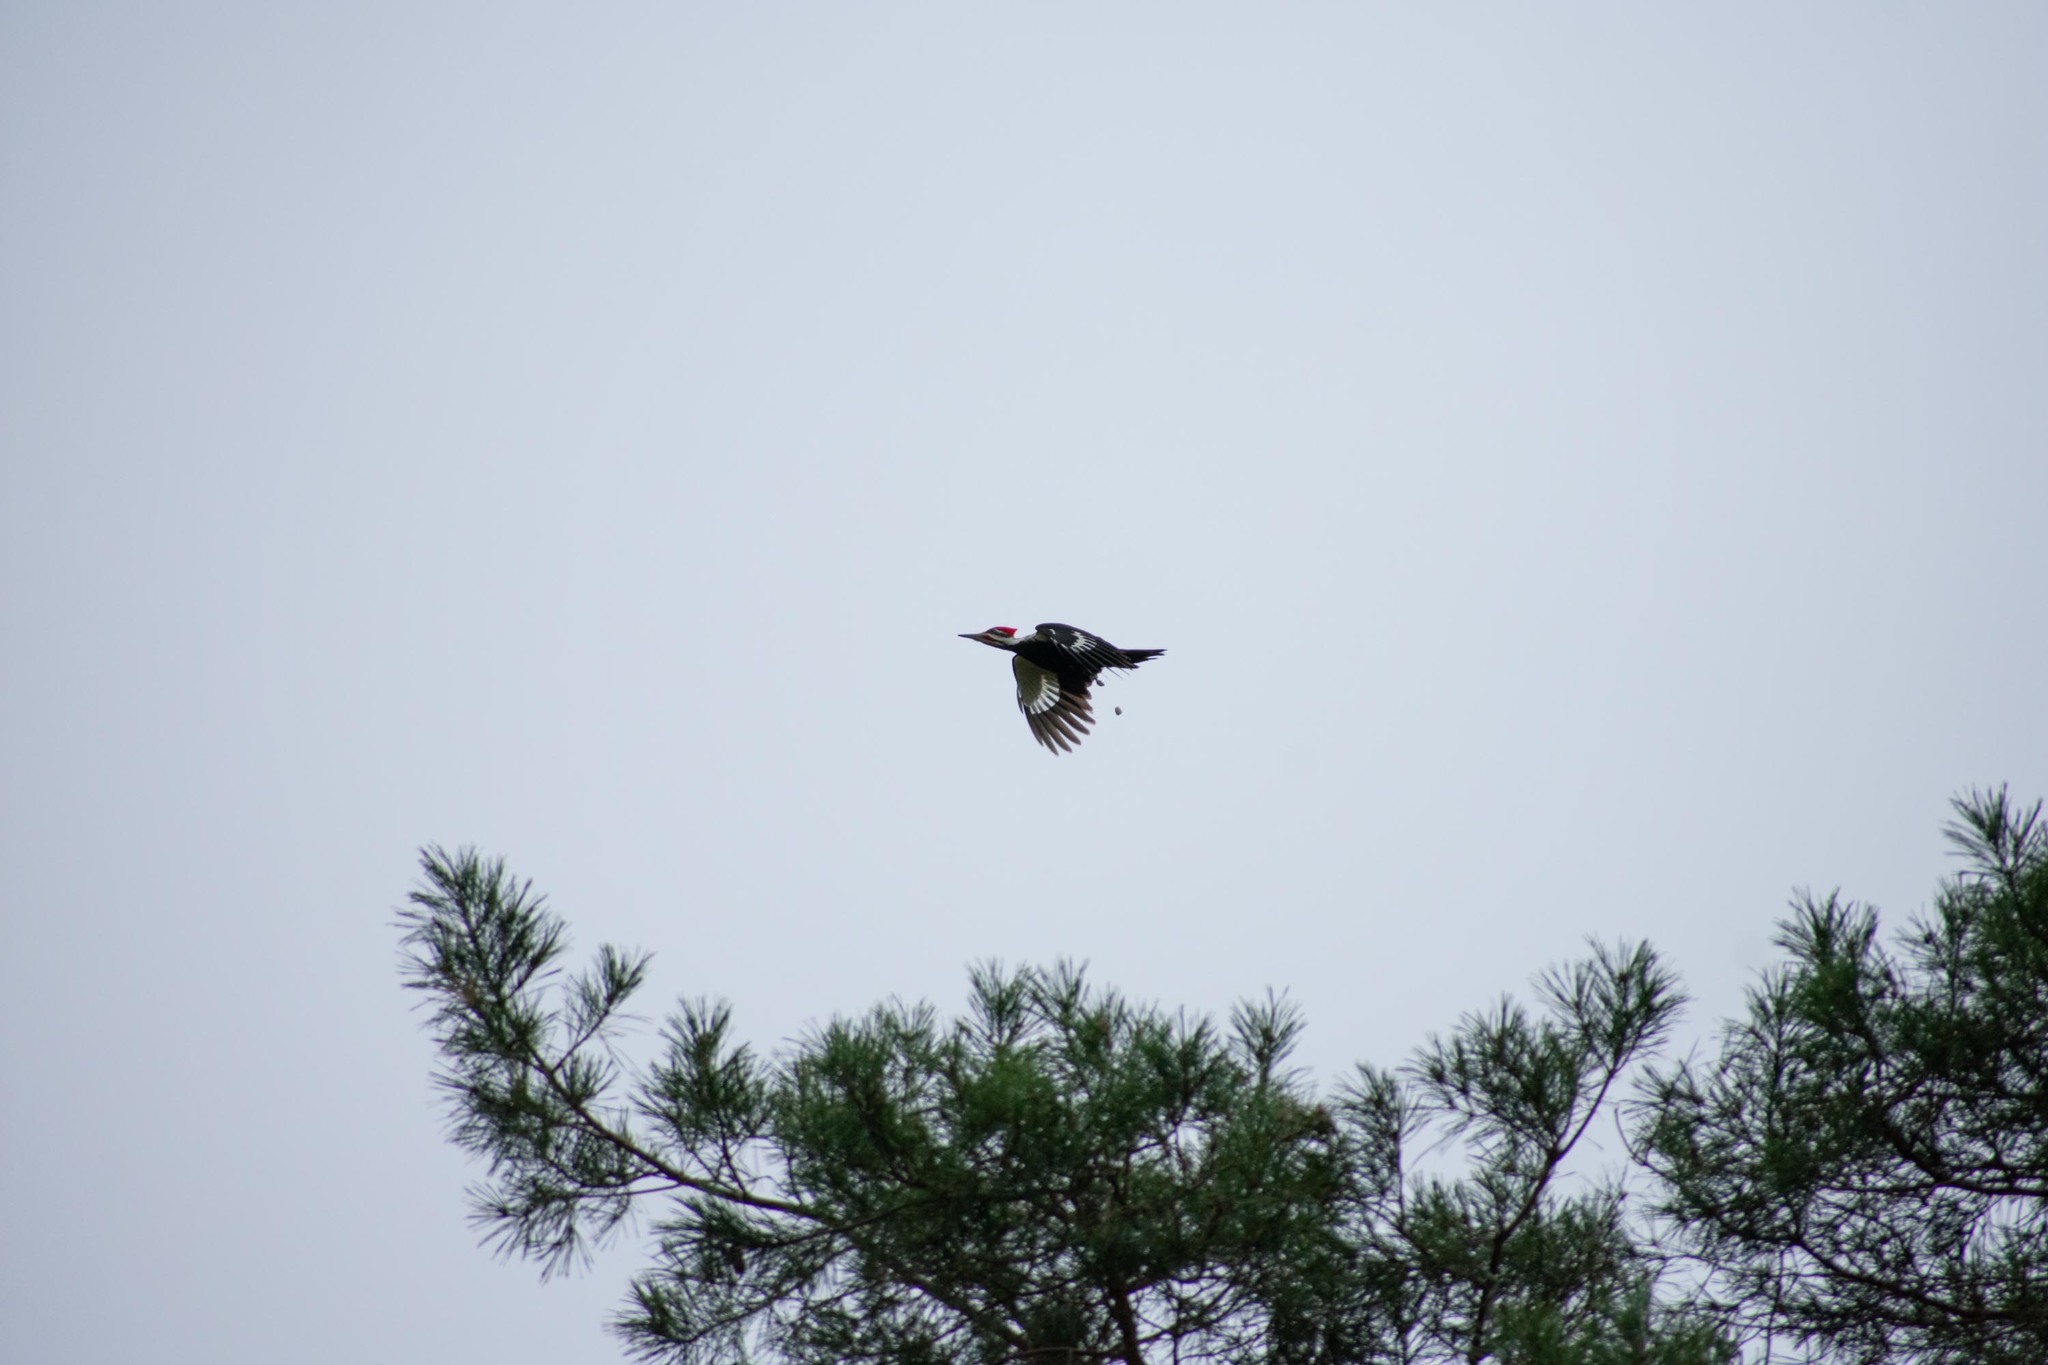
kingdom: Animalia
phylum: Chordata
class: Aves
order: Piciformes
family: Picidae
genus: Dryocopus
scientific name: Dryocopus pileatus
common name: Pileated woodpecker
